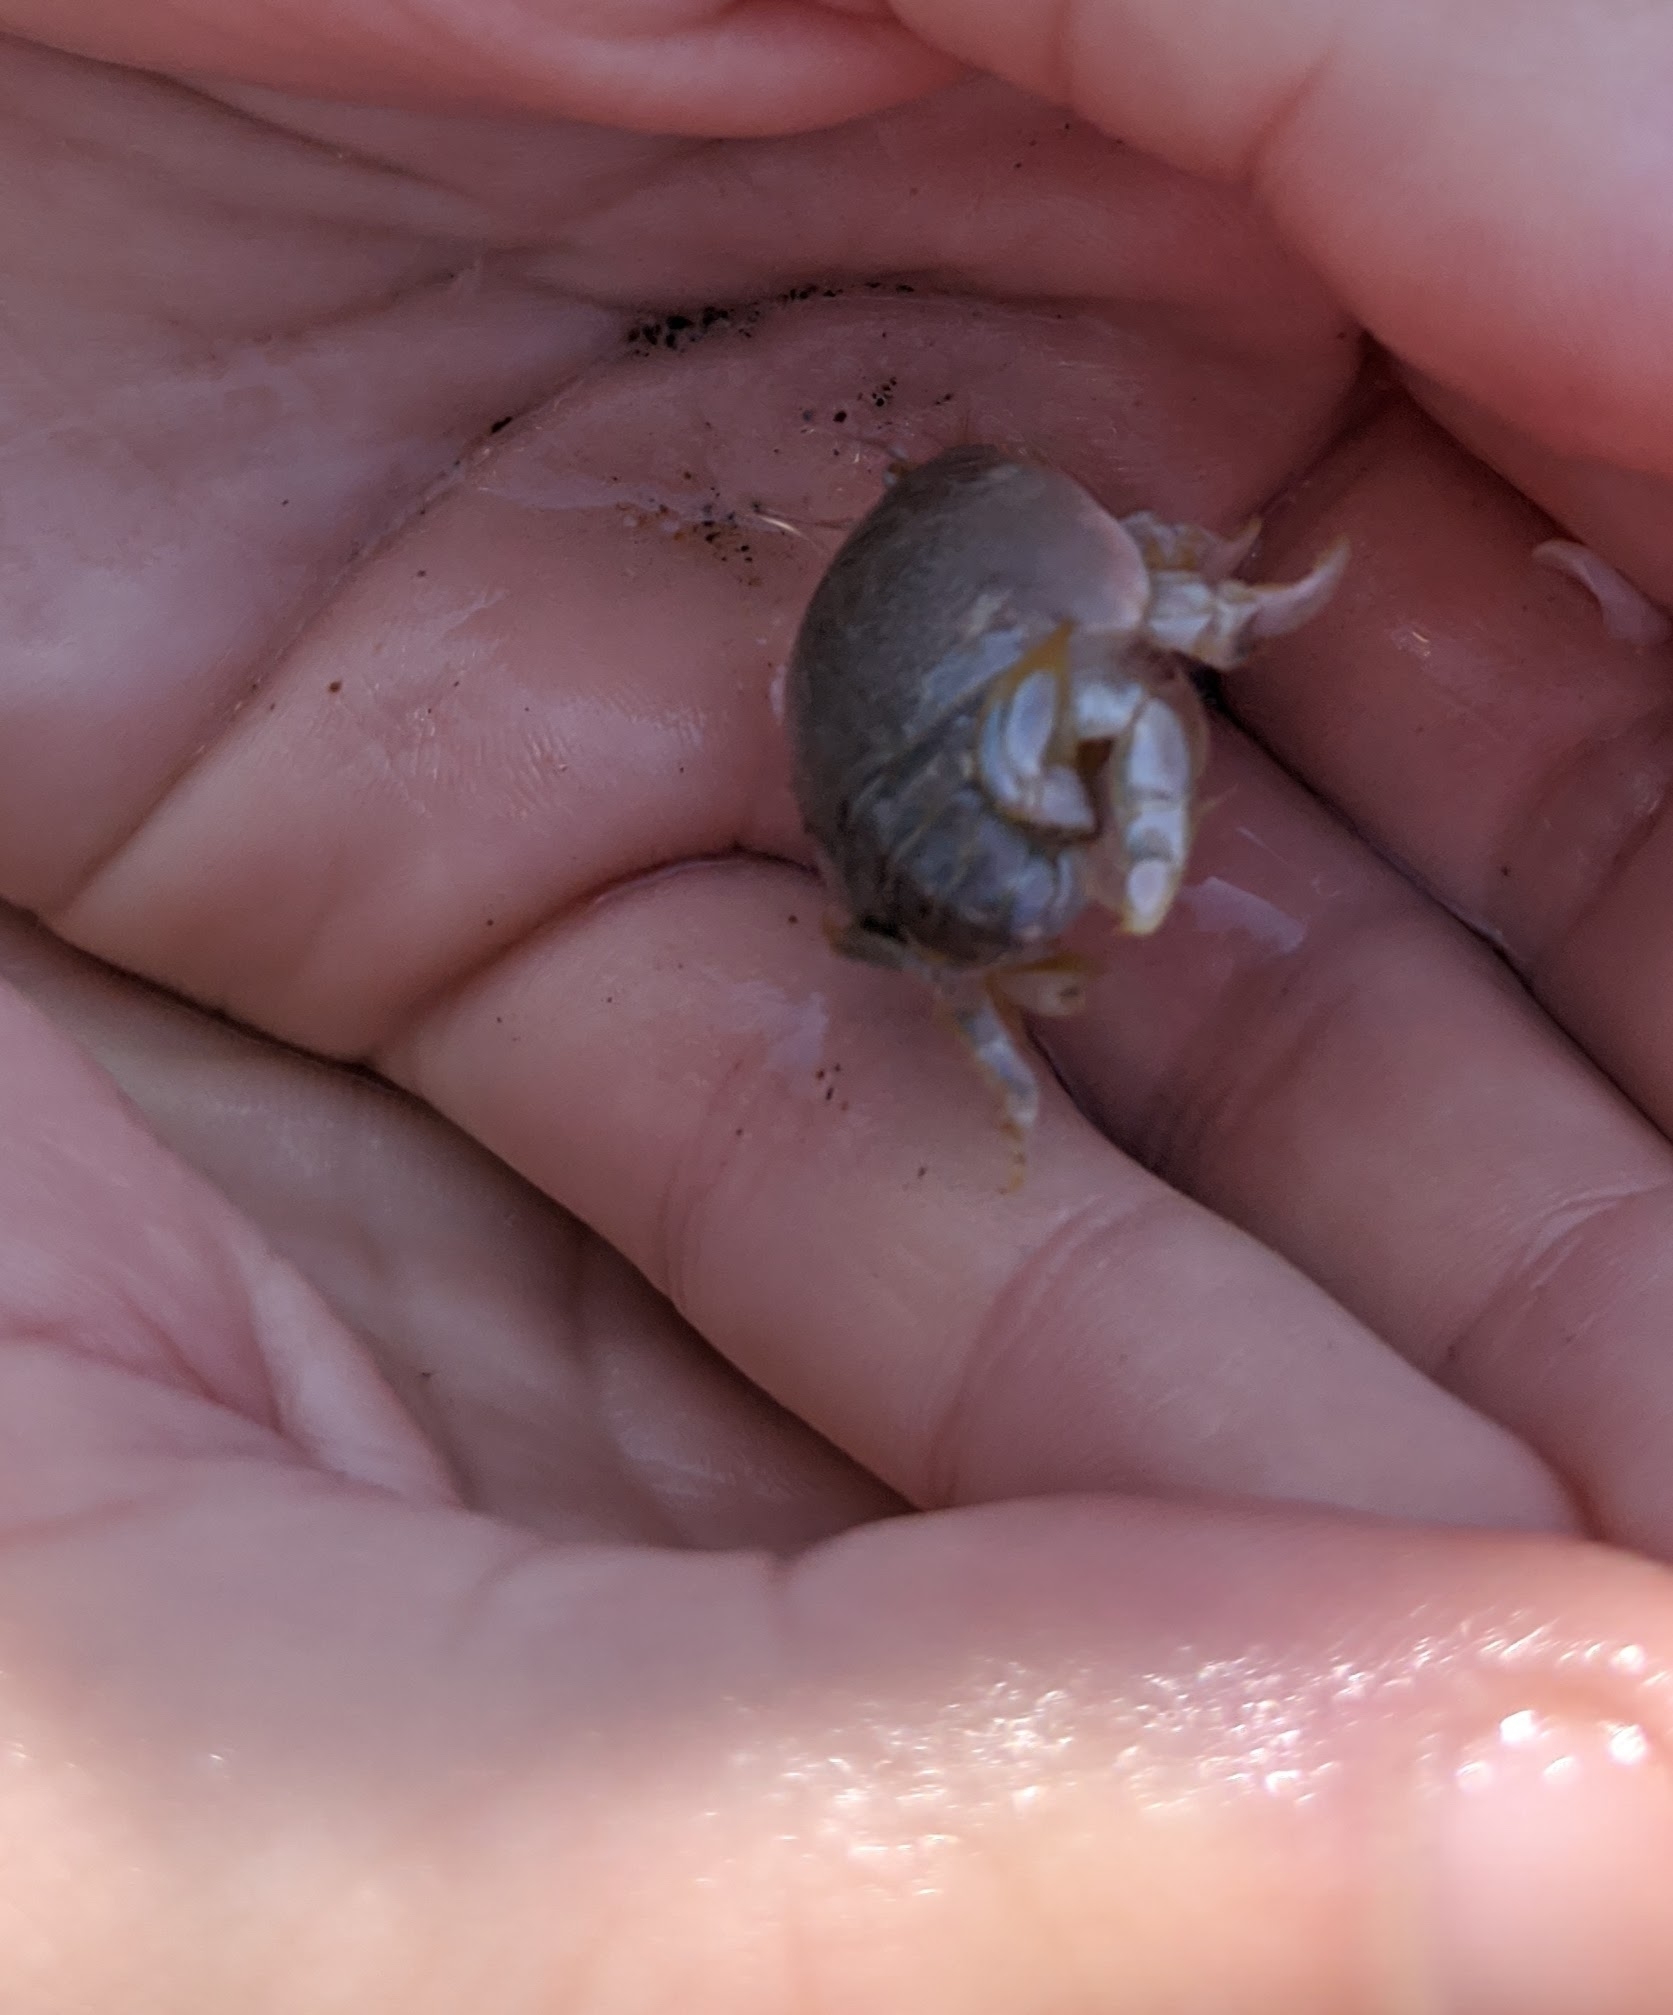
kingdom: Animalia
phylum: Arthropoda
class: Malacostraca
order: Decapoda
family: Hippidae
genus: Emerita
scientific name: Emerita analoga
